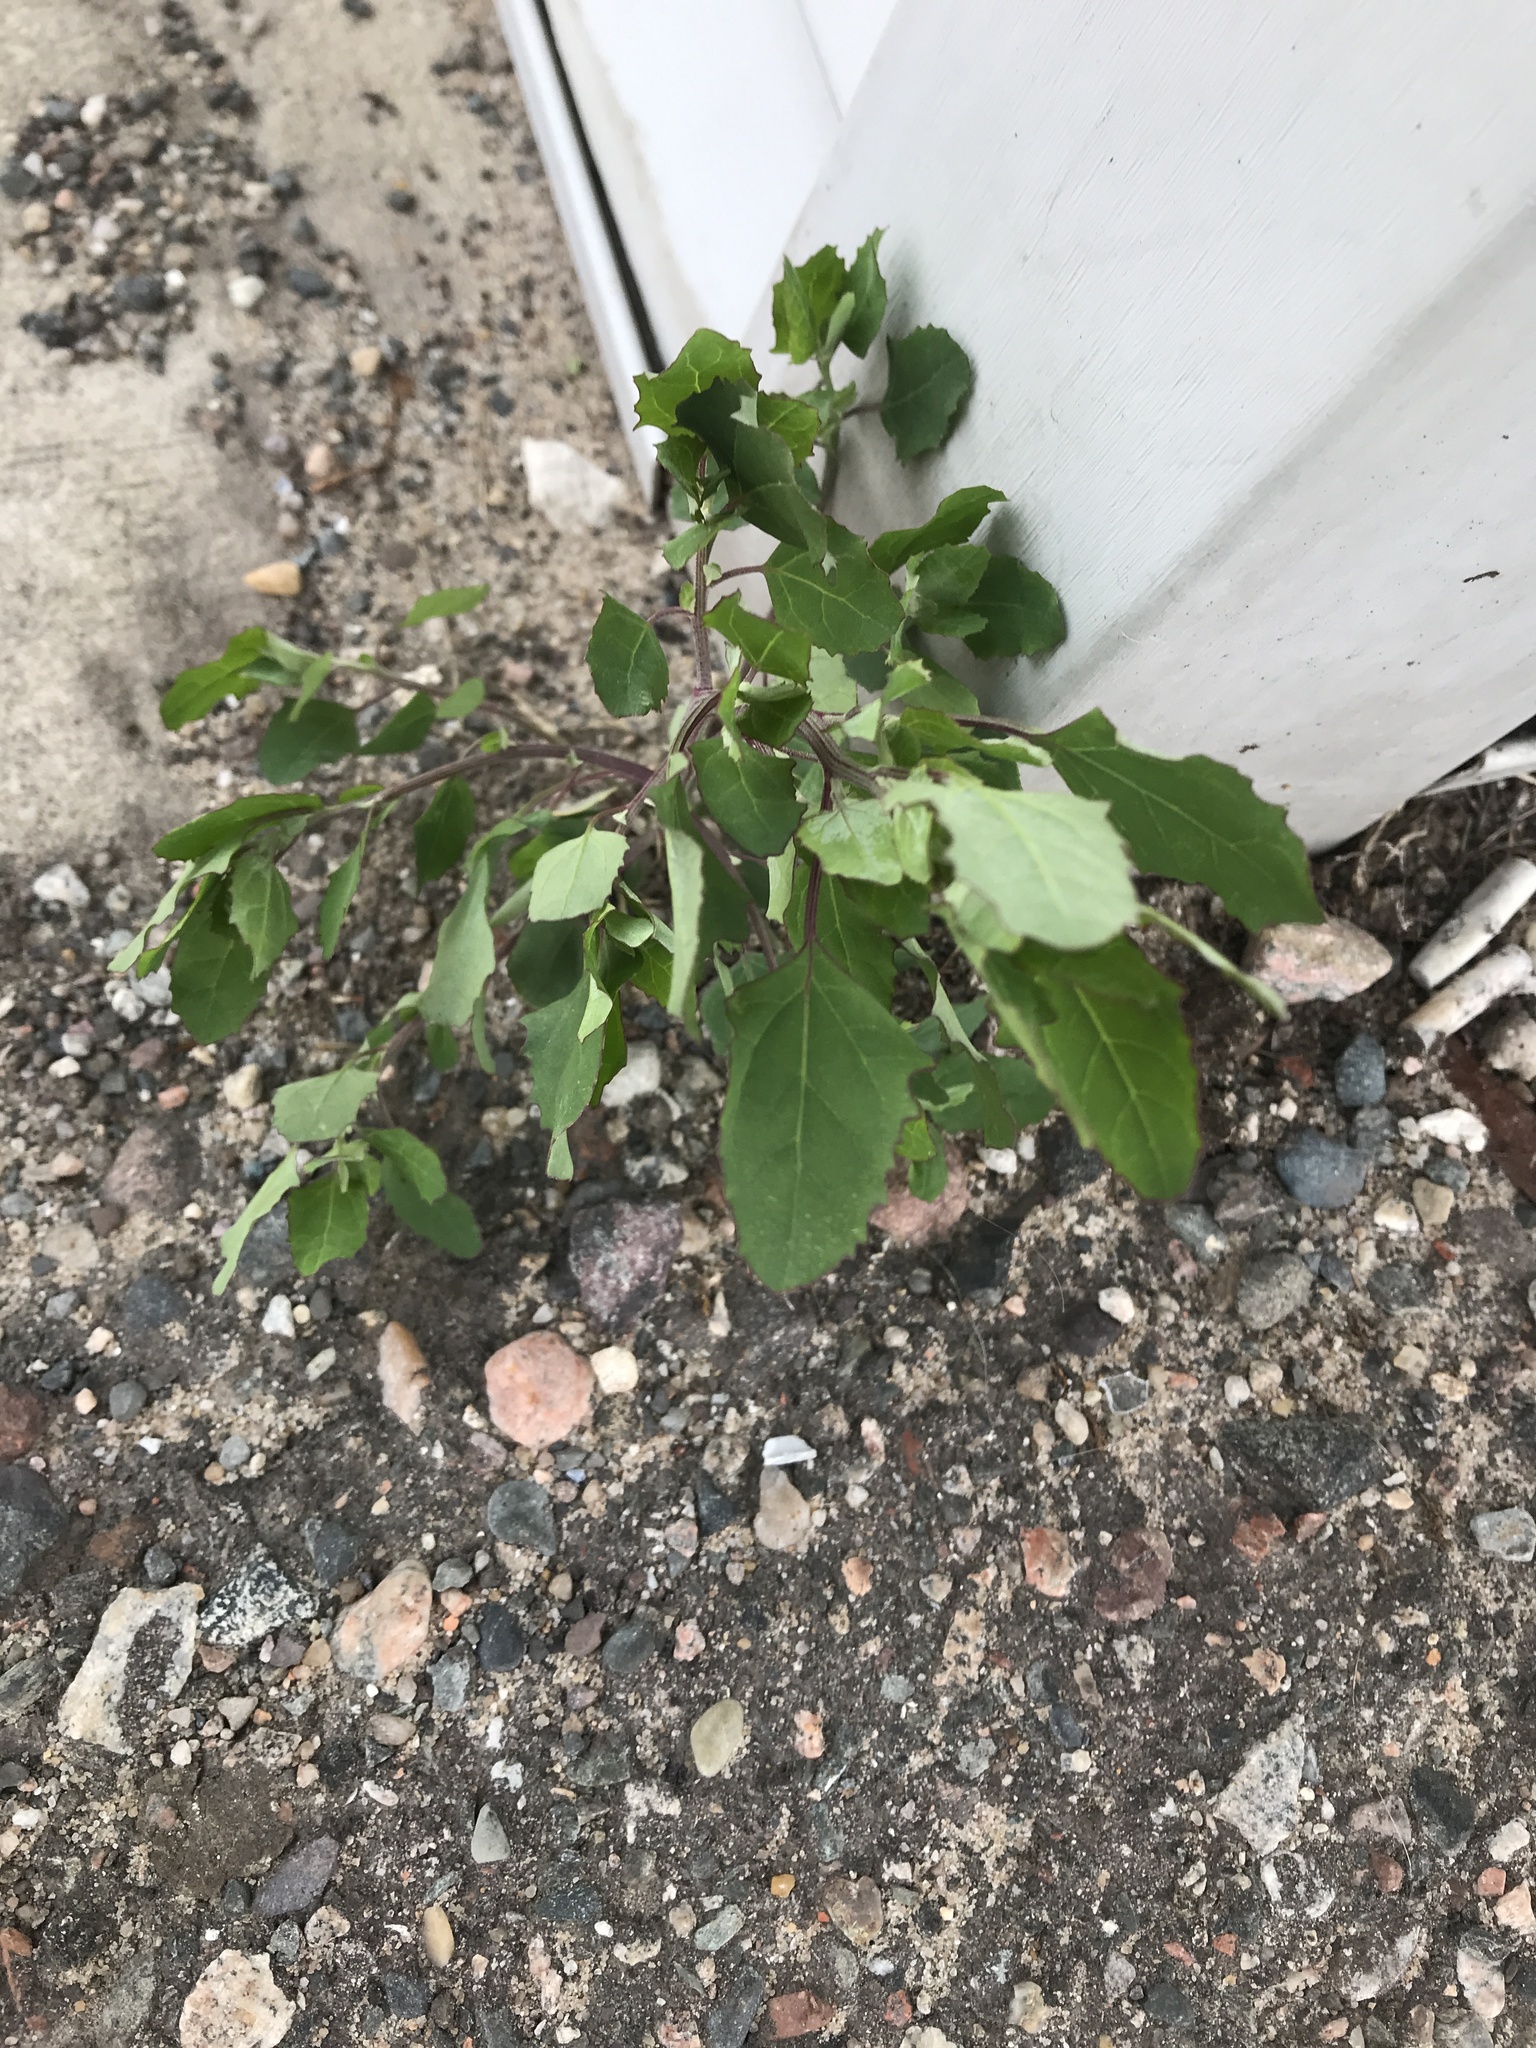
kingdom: Plantae
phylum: Tracheophyta
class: Magnoliopsida
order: Caryophyllales
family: Amaranthaceae
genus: Chenopodium
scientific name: Chenopodium album
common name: Fat-hen
